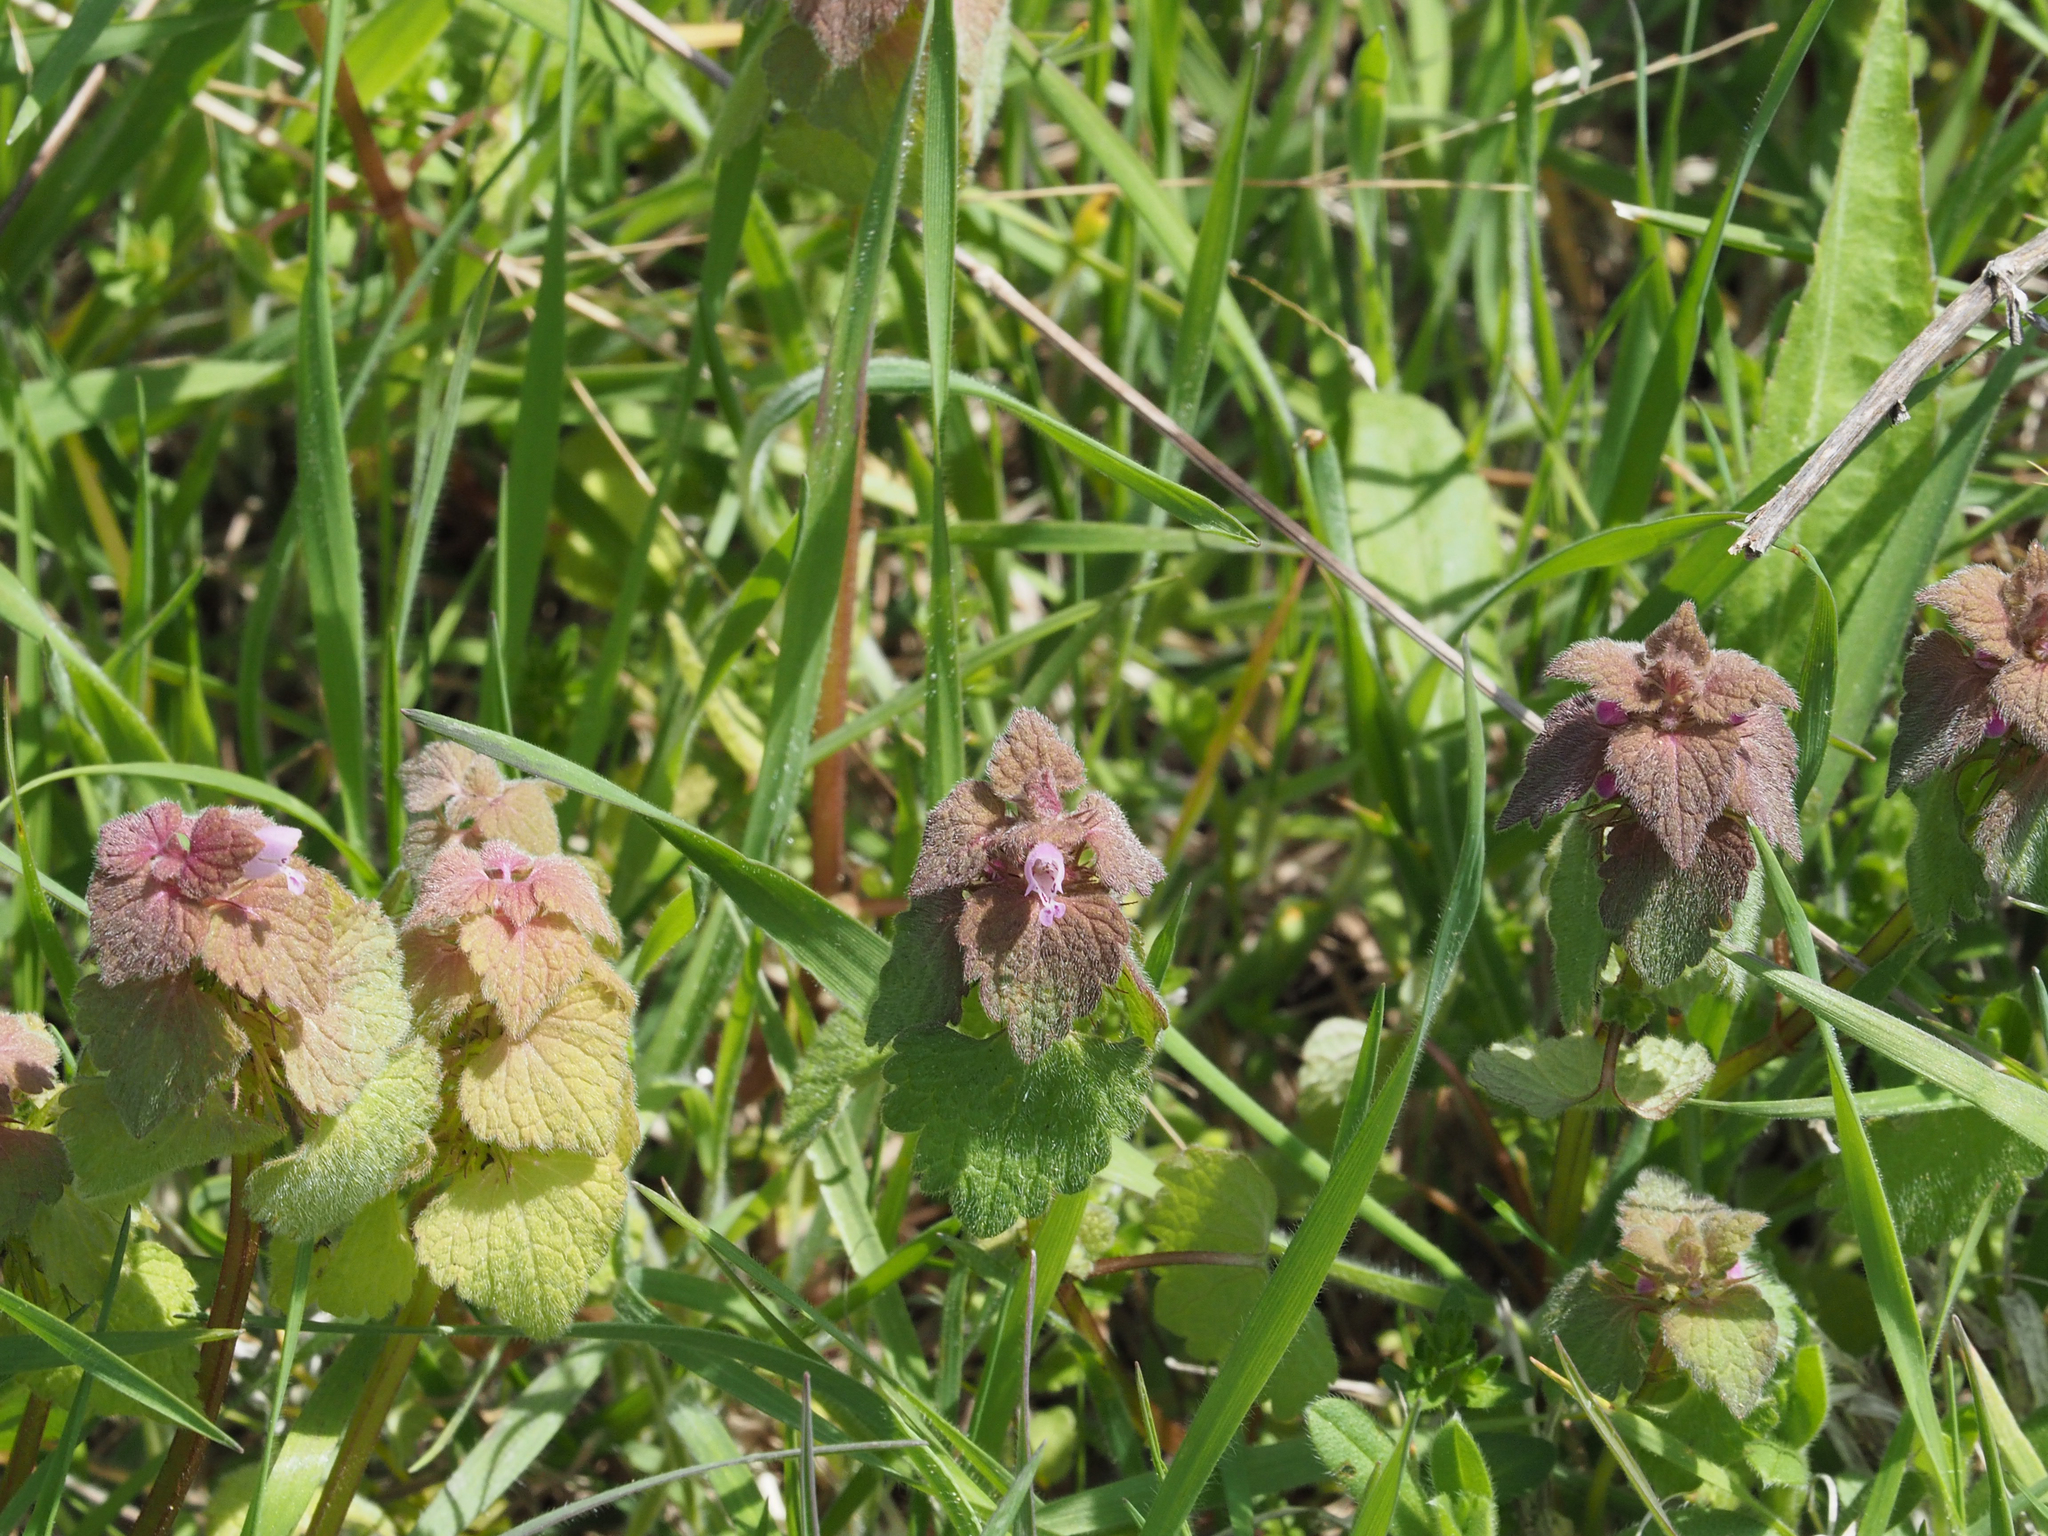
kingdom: Plantae
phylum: Tracheophyta
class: Magnoliopsida
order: Lamiales
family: Lamiaceae
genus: Lamium
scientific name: Lamium purpureum
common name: Red dead-nettle
